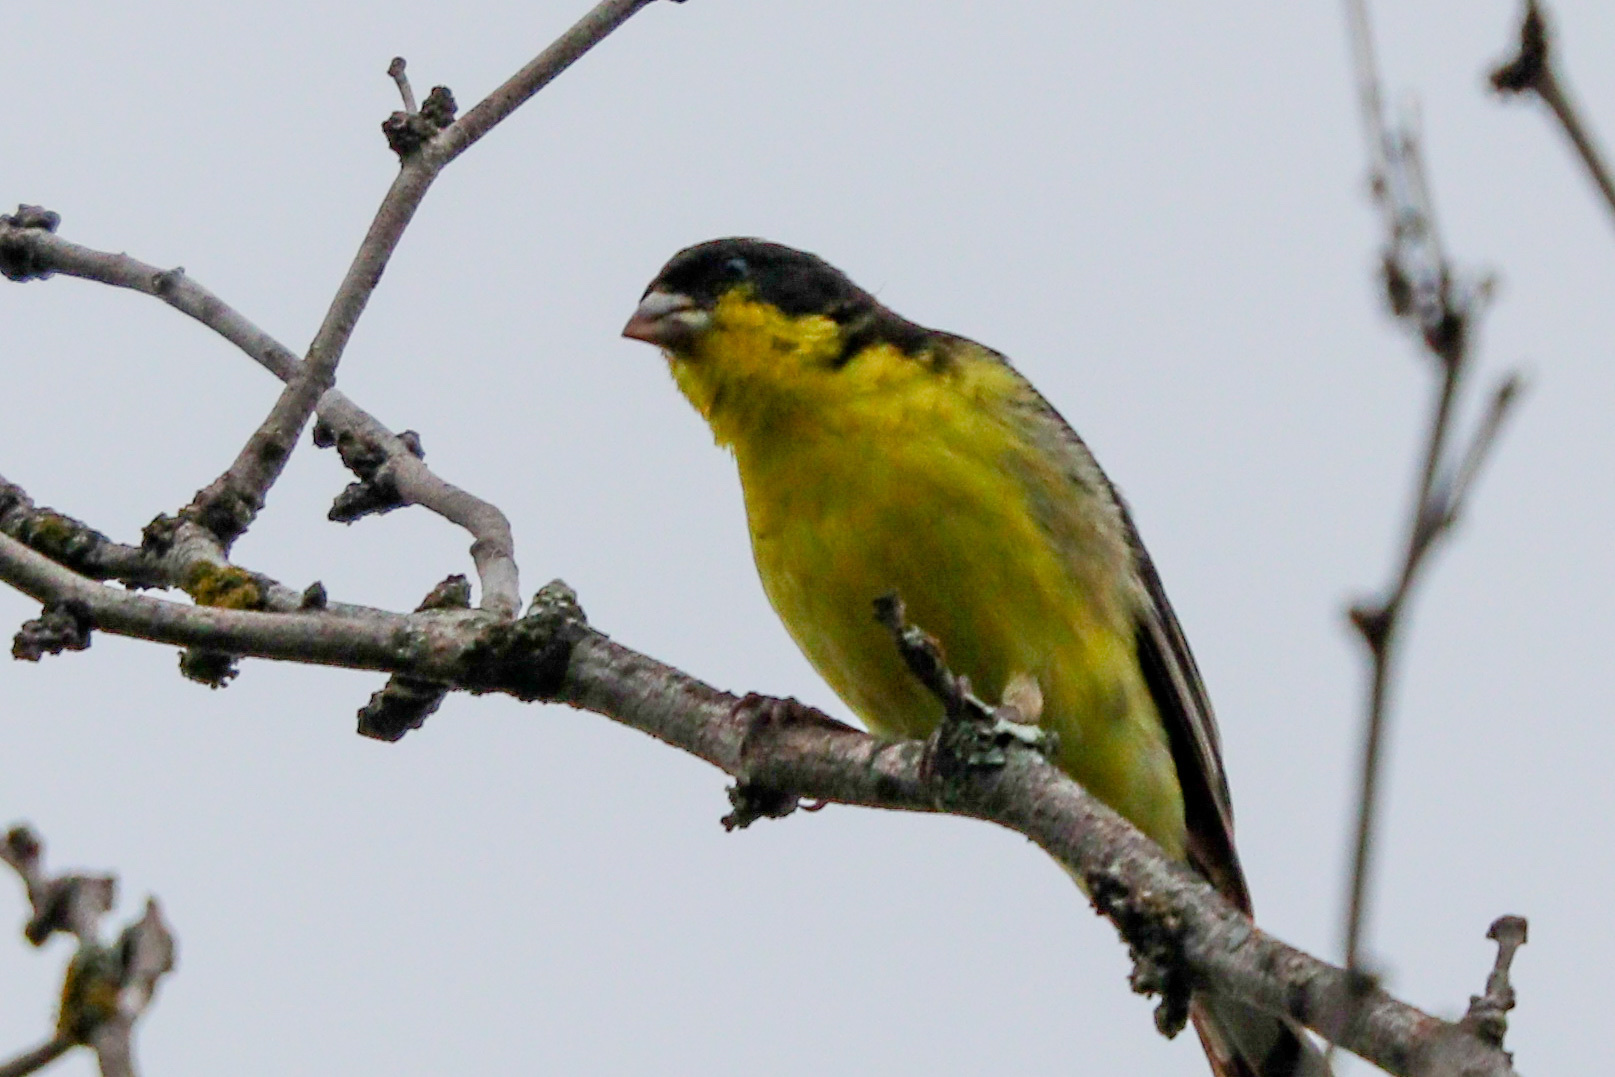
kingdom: Animalia
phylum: Chordata
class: Aves
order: Passeriformes
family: Fringillidae
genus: Spinus
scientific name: Spinus psaltria
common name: Lesser goldfinch
